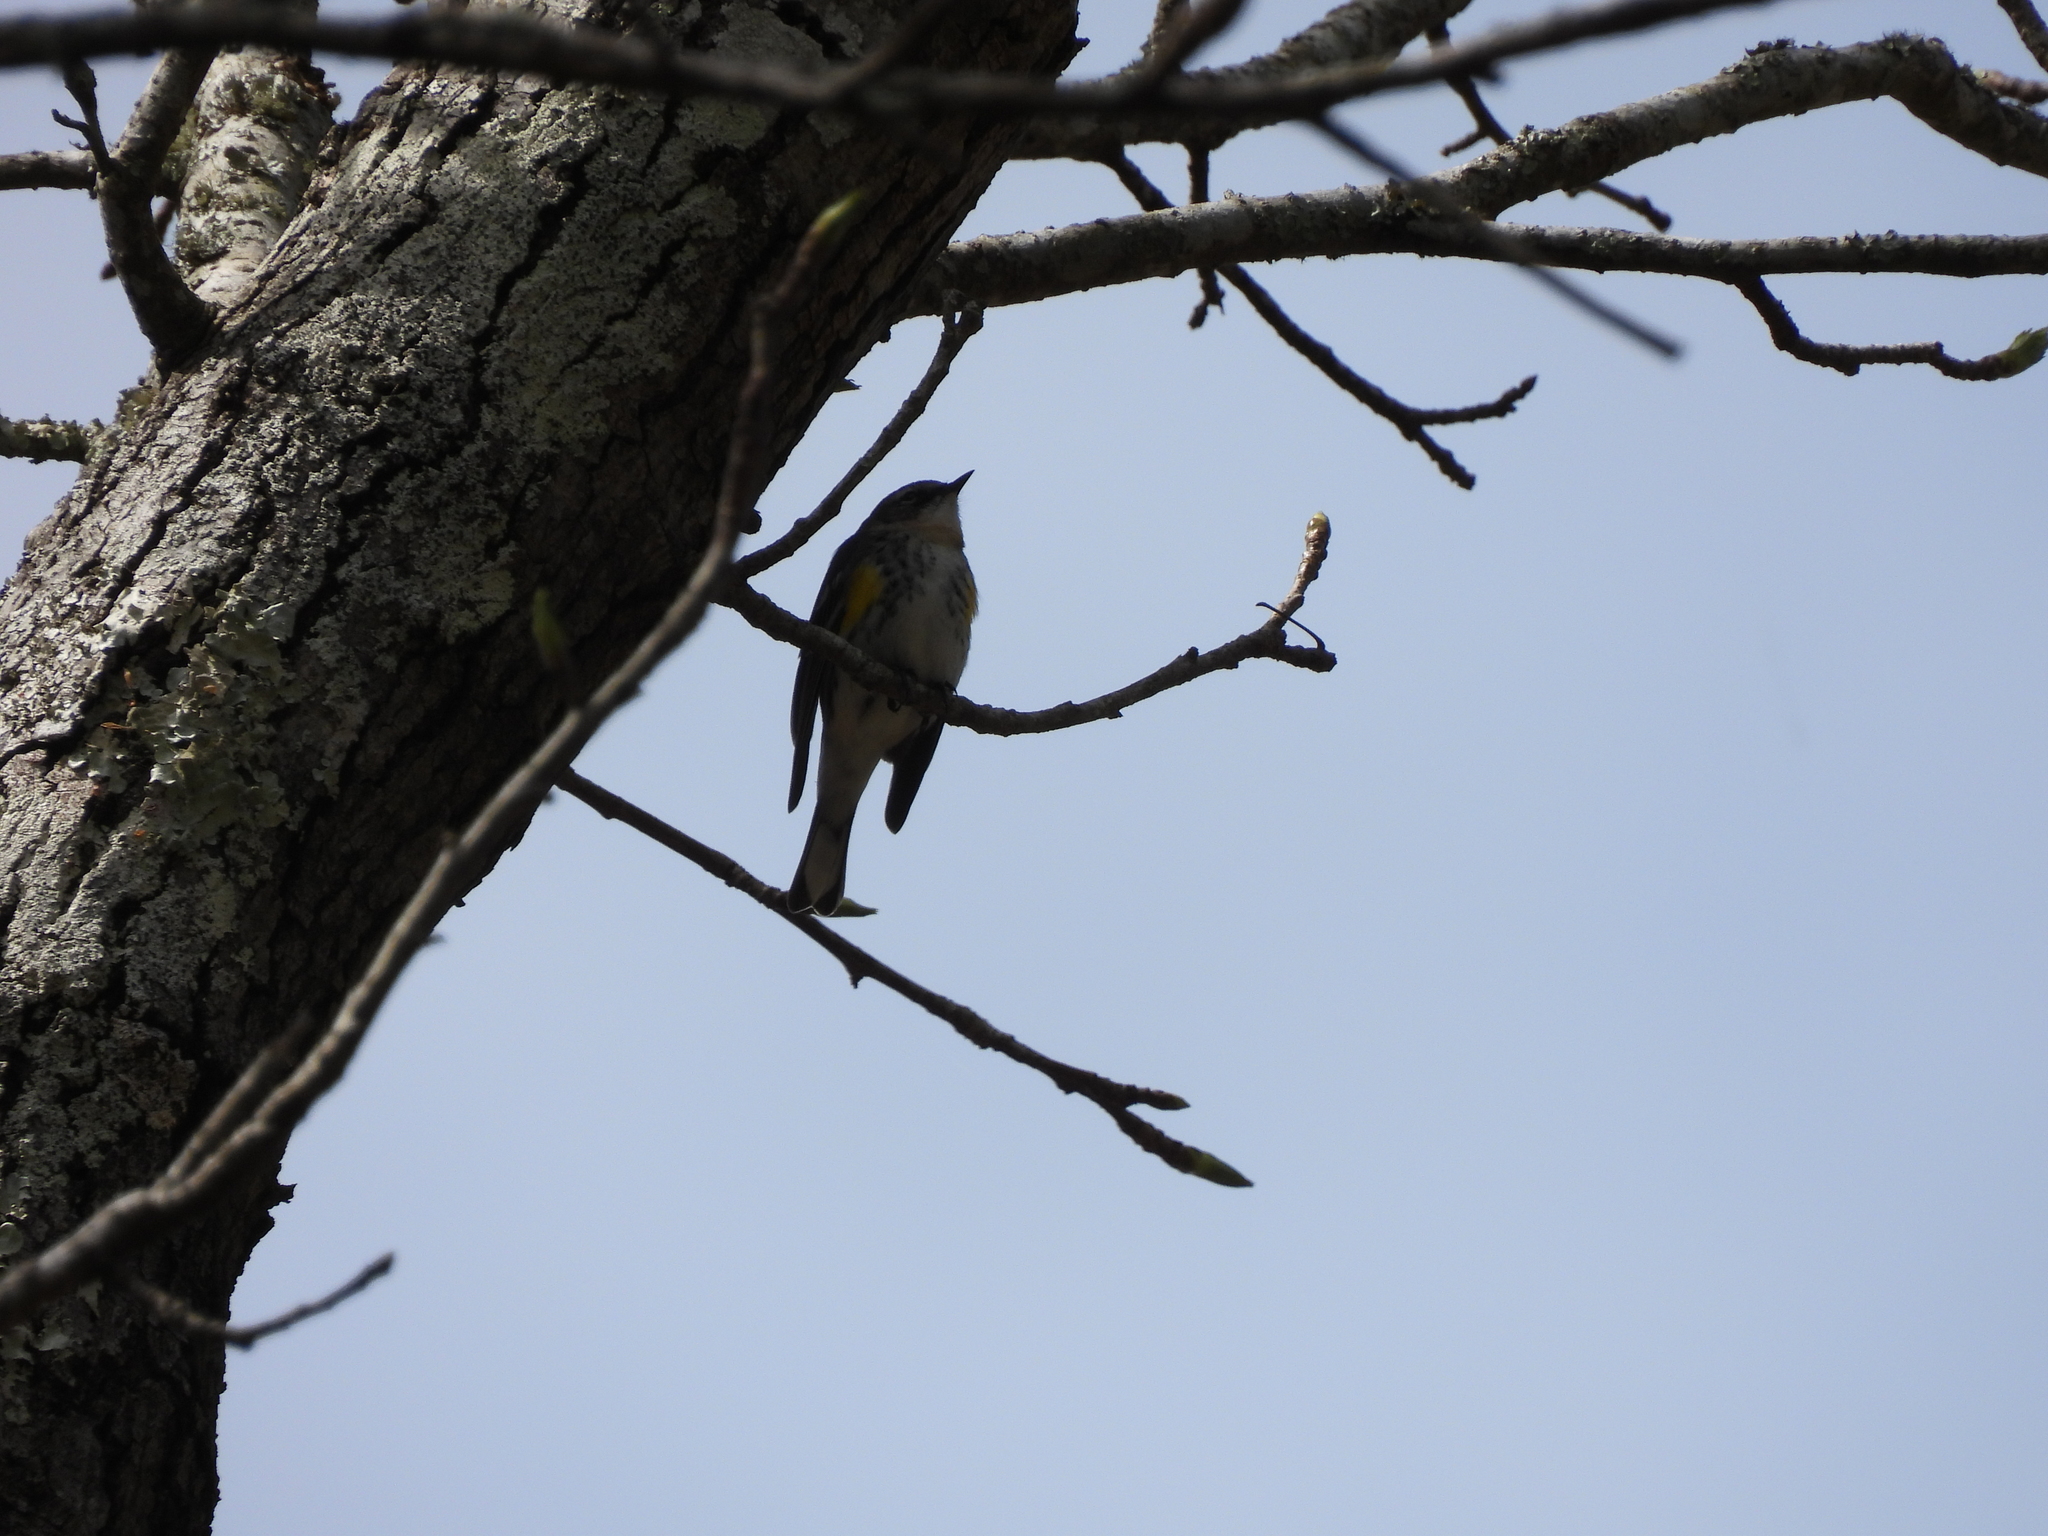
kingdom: Animalia
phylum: Chordata
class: Aves
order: Passeriformes
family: Parulidae
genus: Setophaga
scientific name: Setophaga coronata
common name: Myrtle warbler
